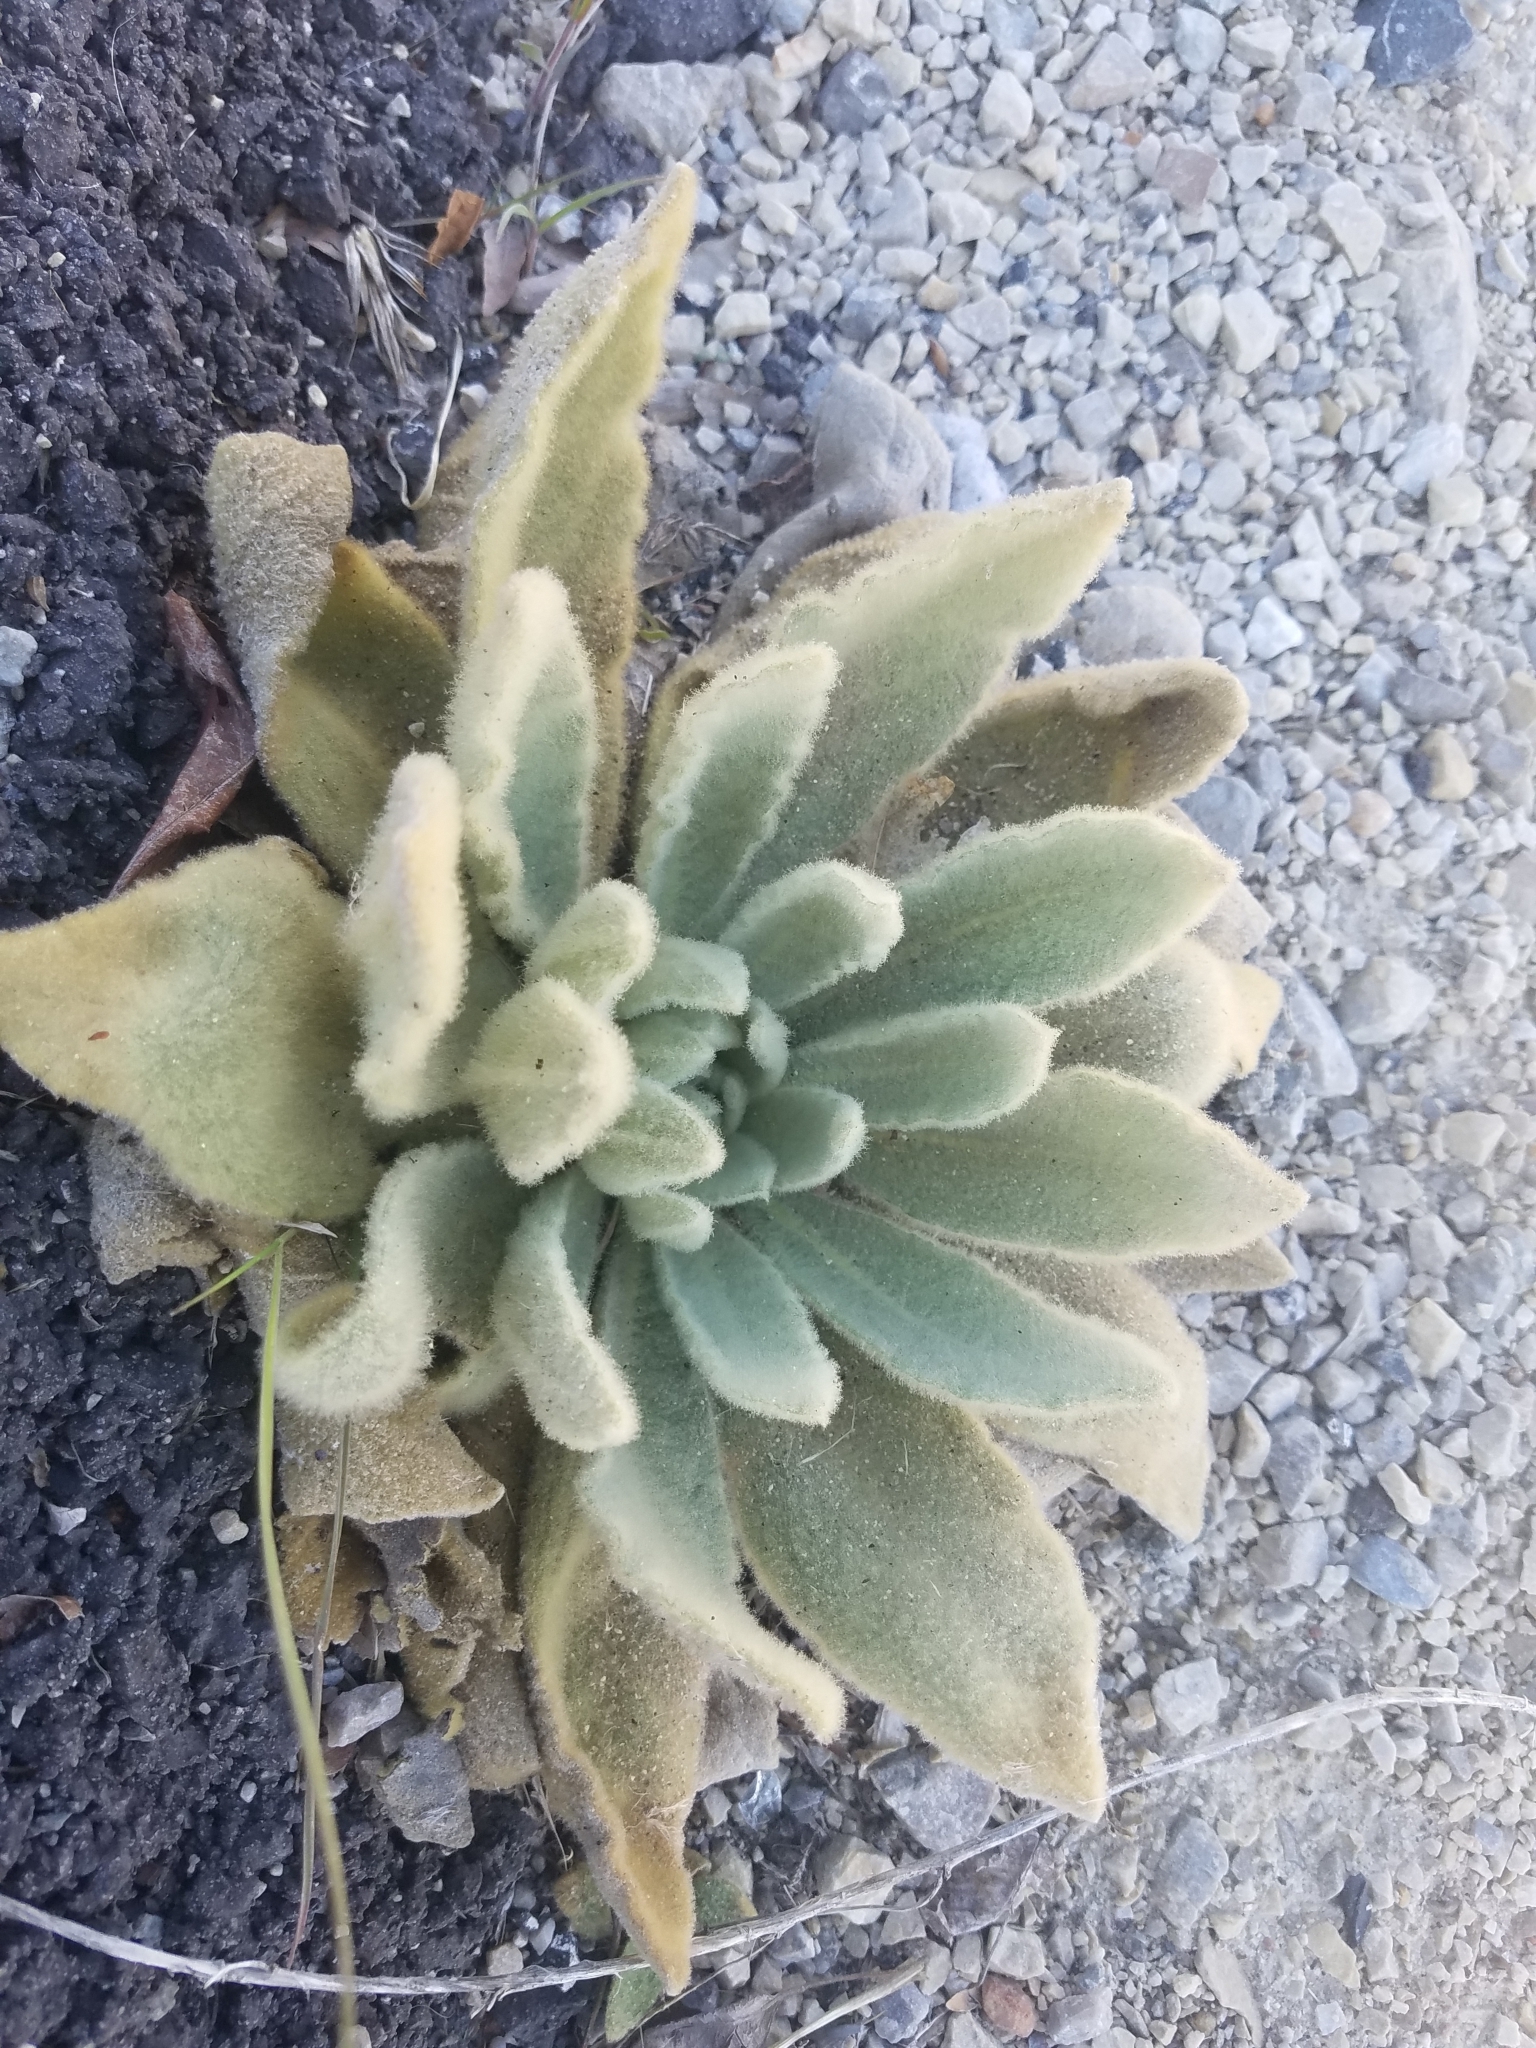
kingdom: Plantae
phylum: Tracheophyta
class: Magnoliopsida
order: Lamiales
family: Scrophulariaceae
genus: Verbascum
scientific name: Verbascum thapsus
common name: Common mullein
